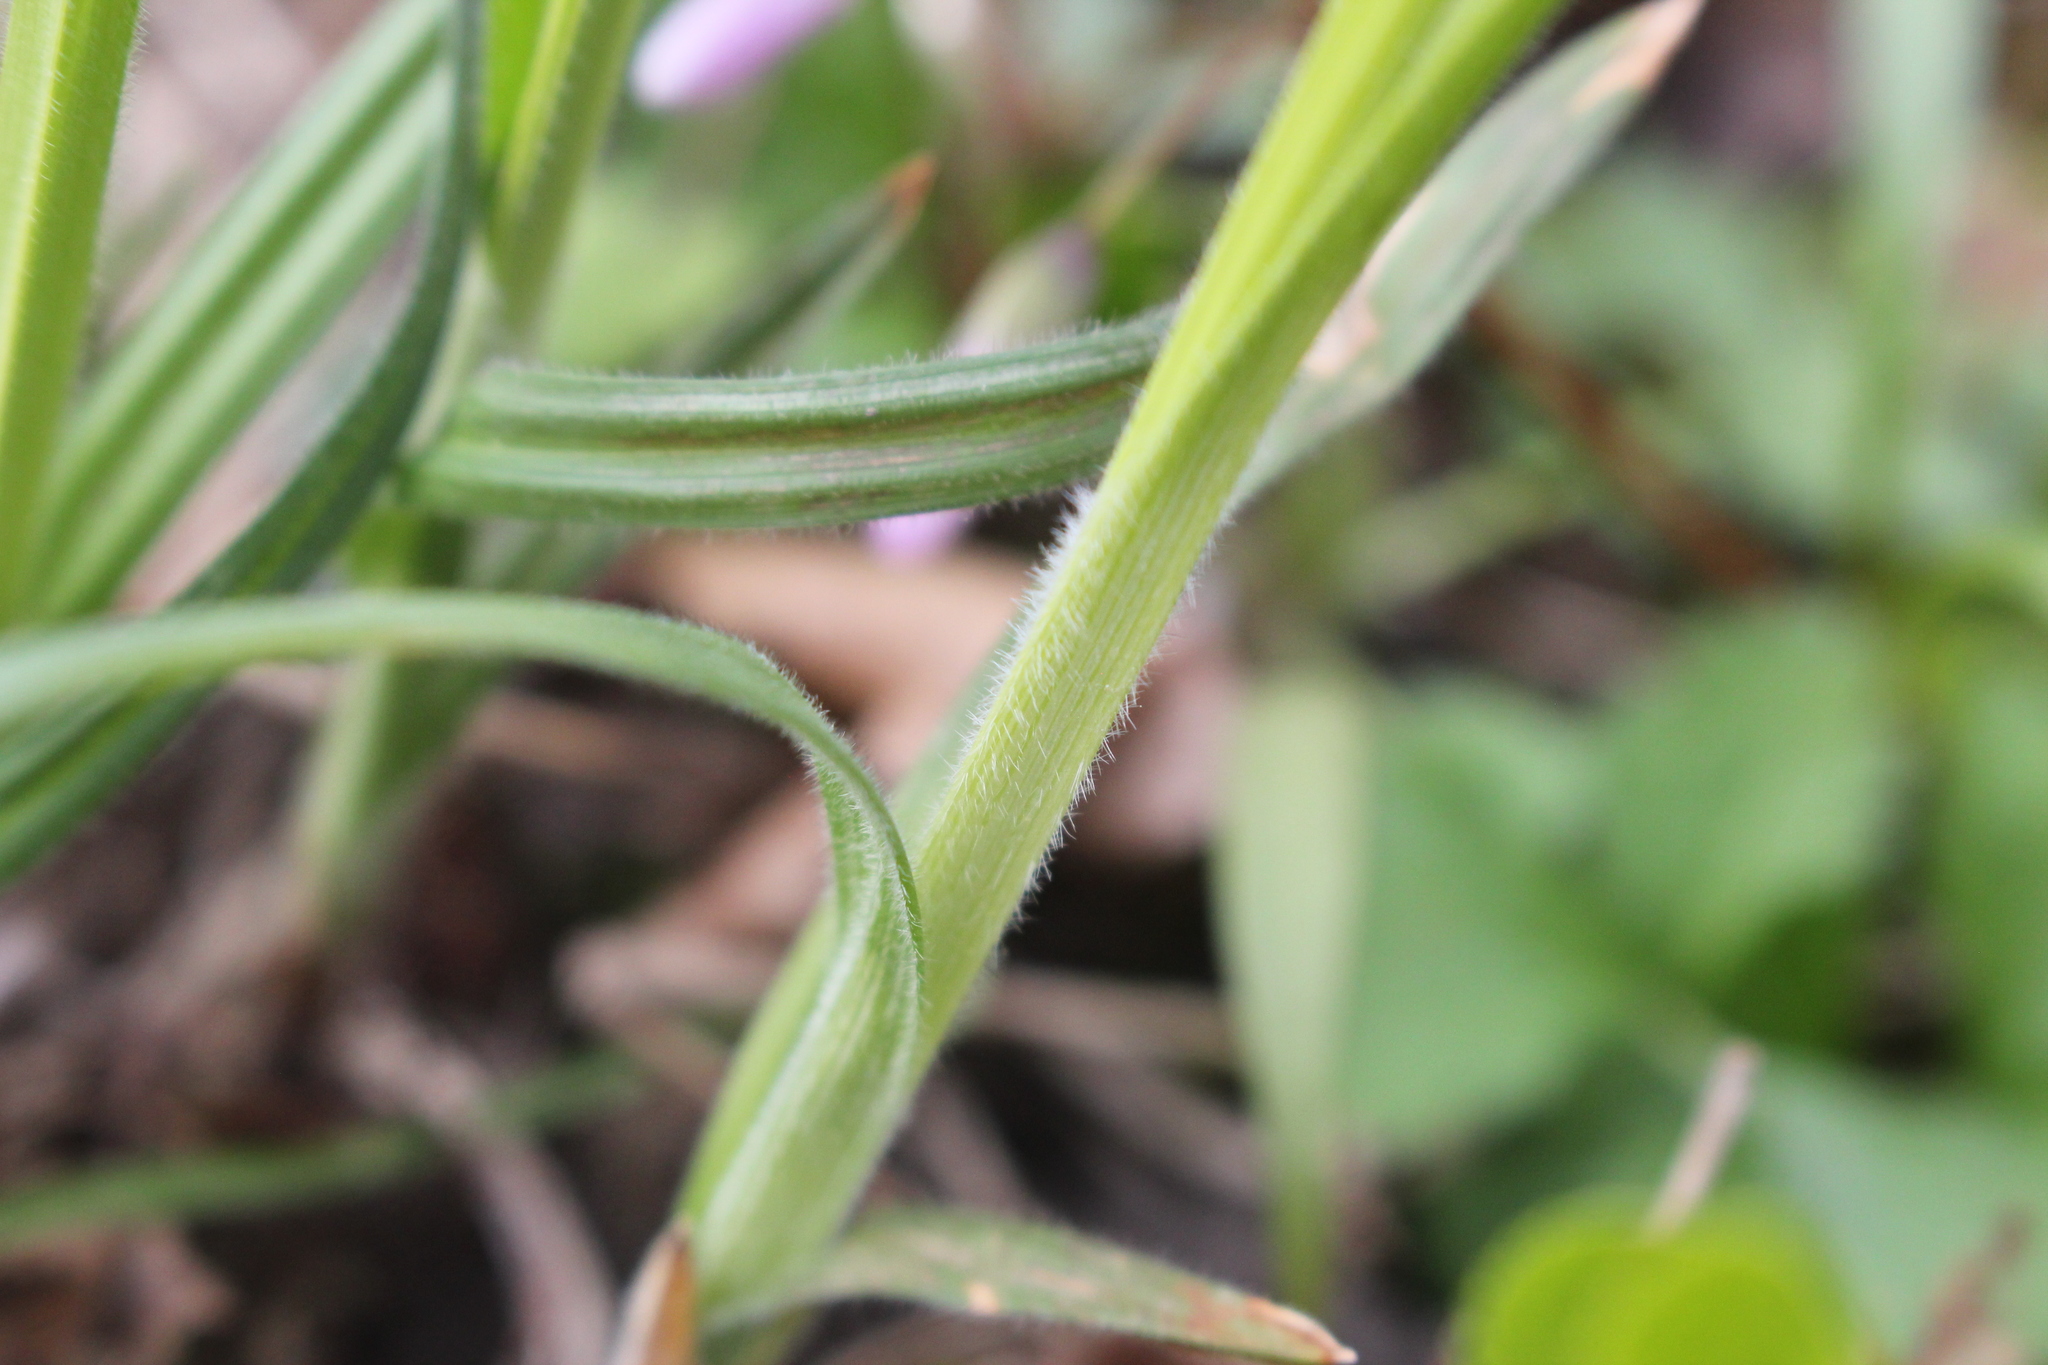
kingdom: Plantae
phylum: Tracheophyta
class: Liliopsida
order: Poales
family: Cyperaceae
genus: Carex
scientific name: Carex hirtifolia
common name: Hairy sedge
